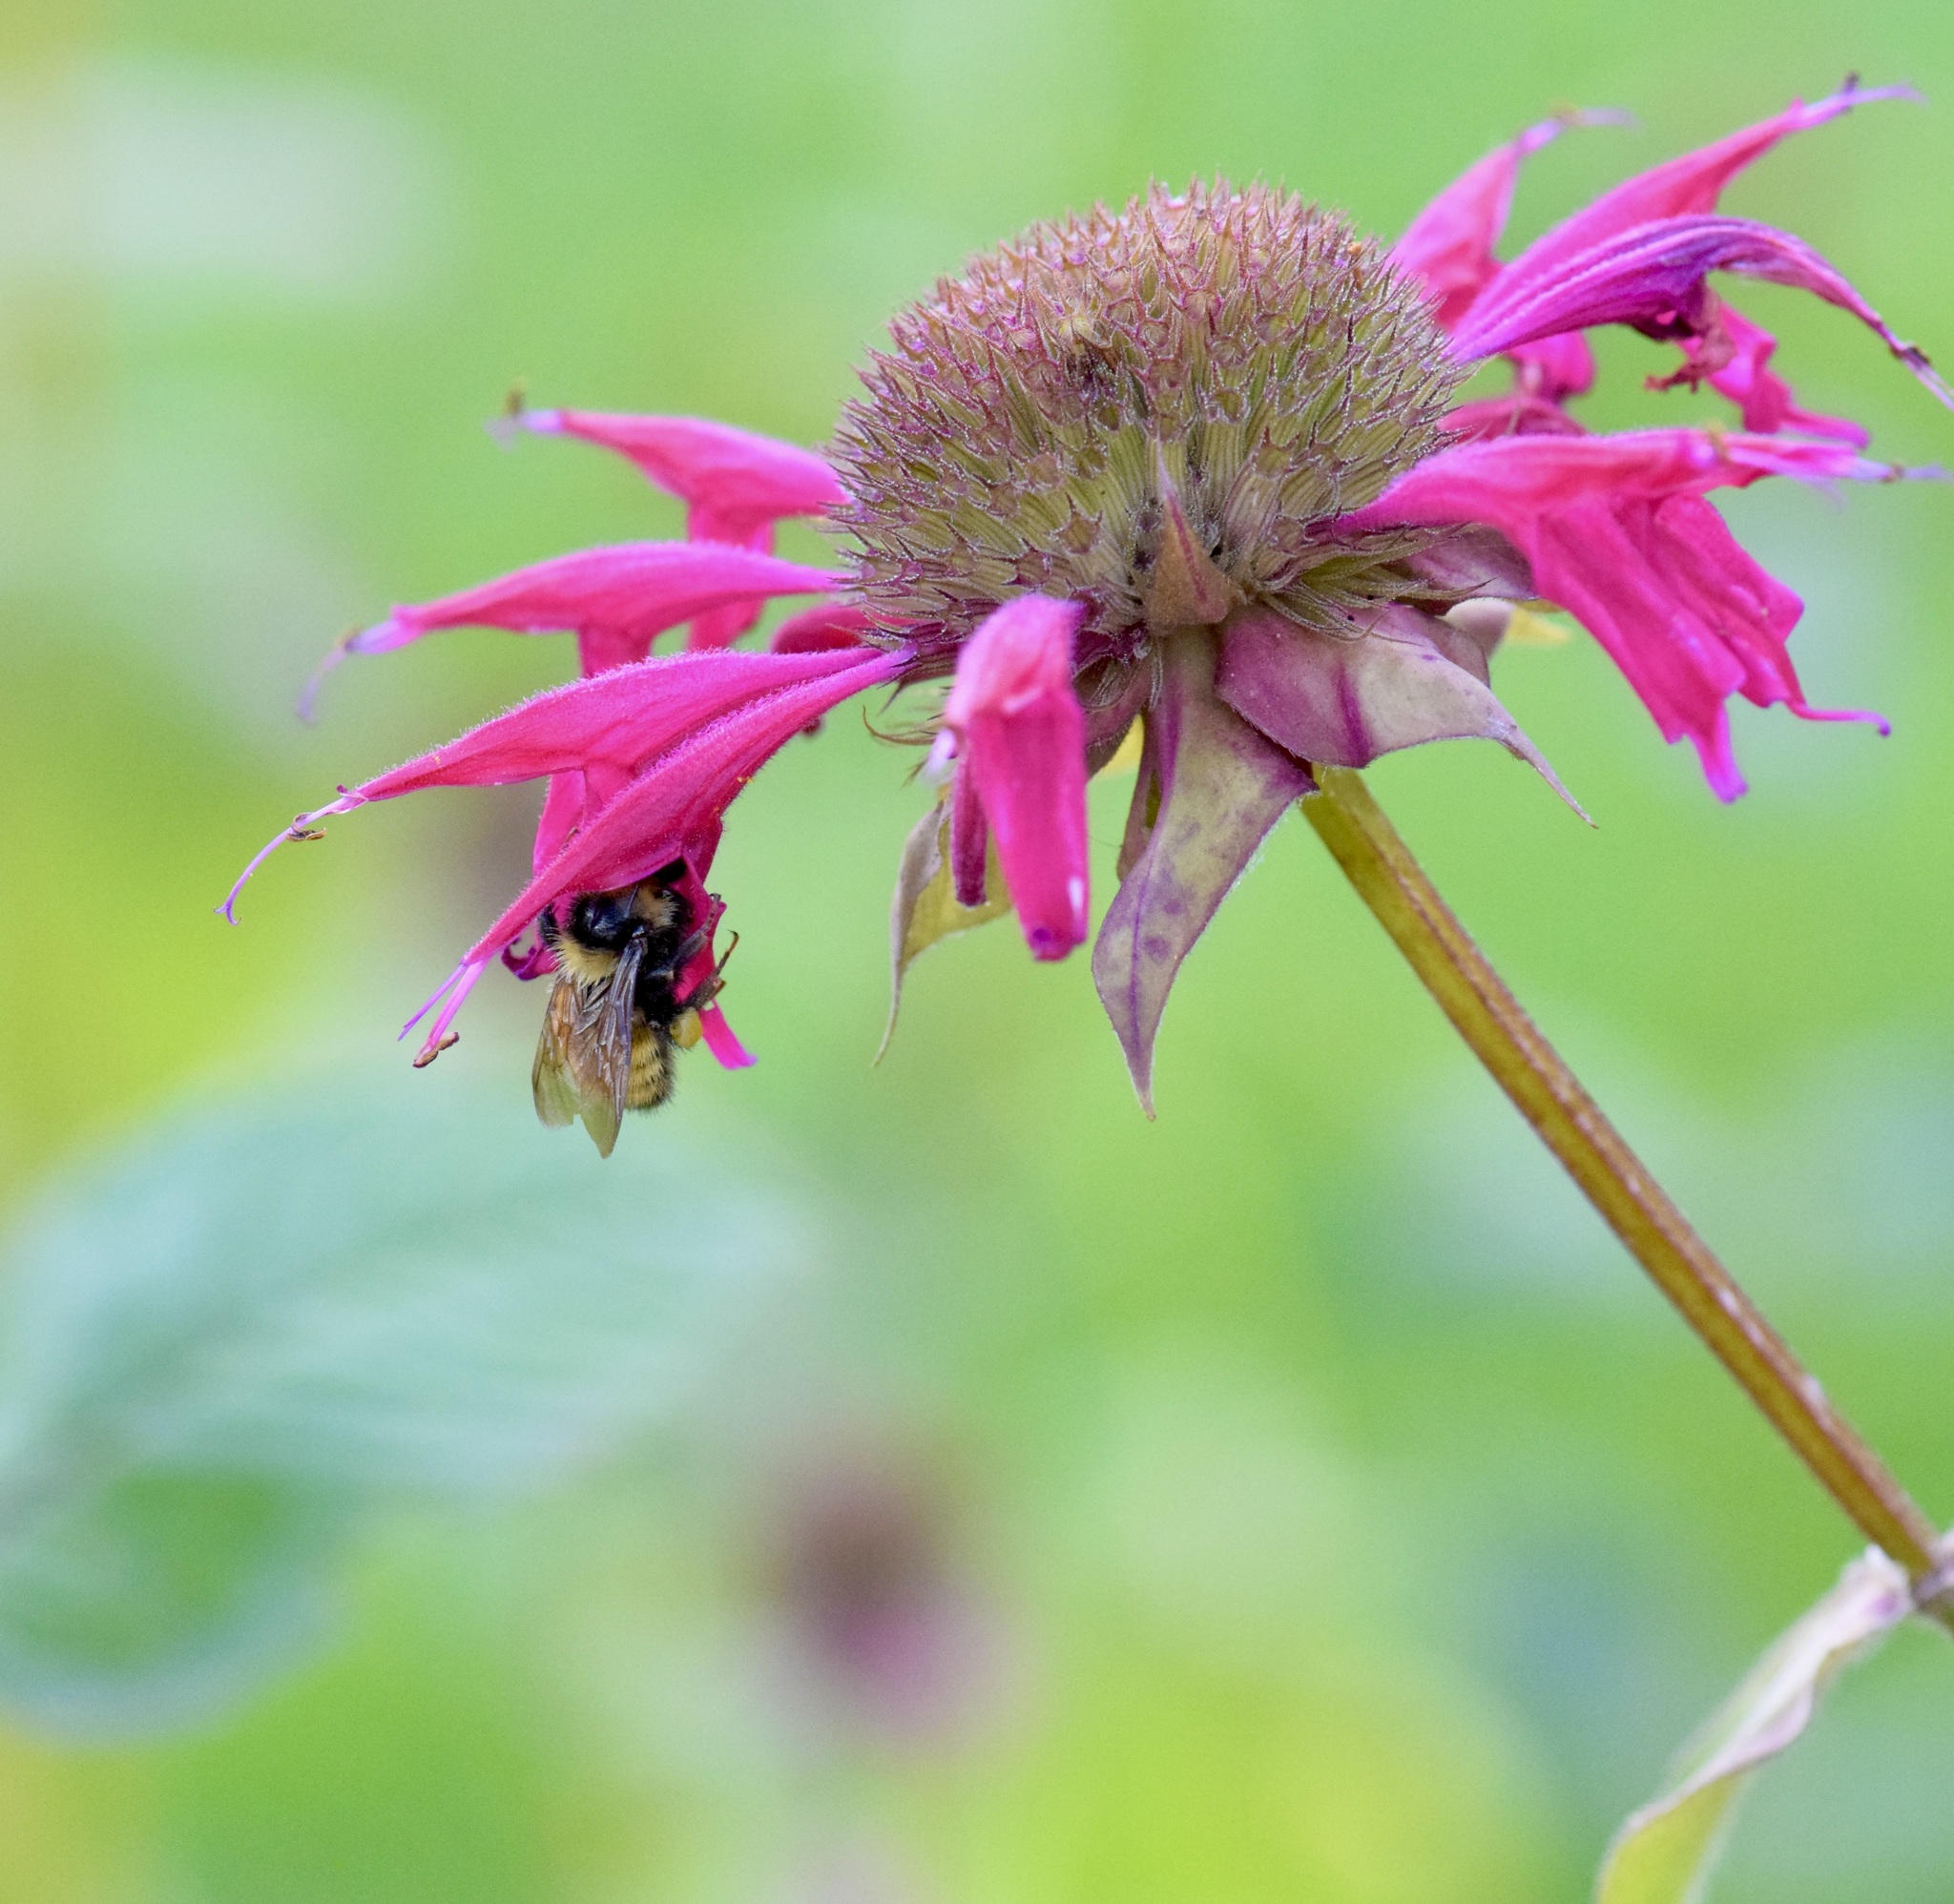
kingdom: Animalia
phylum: Arthropoda
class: Insecta
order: Hymenoptera
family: Apidae
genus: Bombus
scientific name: Bombus borealis
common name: Northern amber bumble bee
